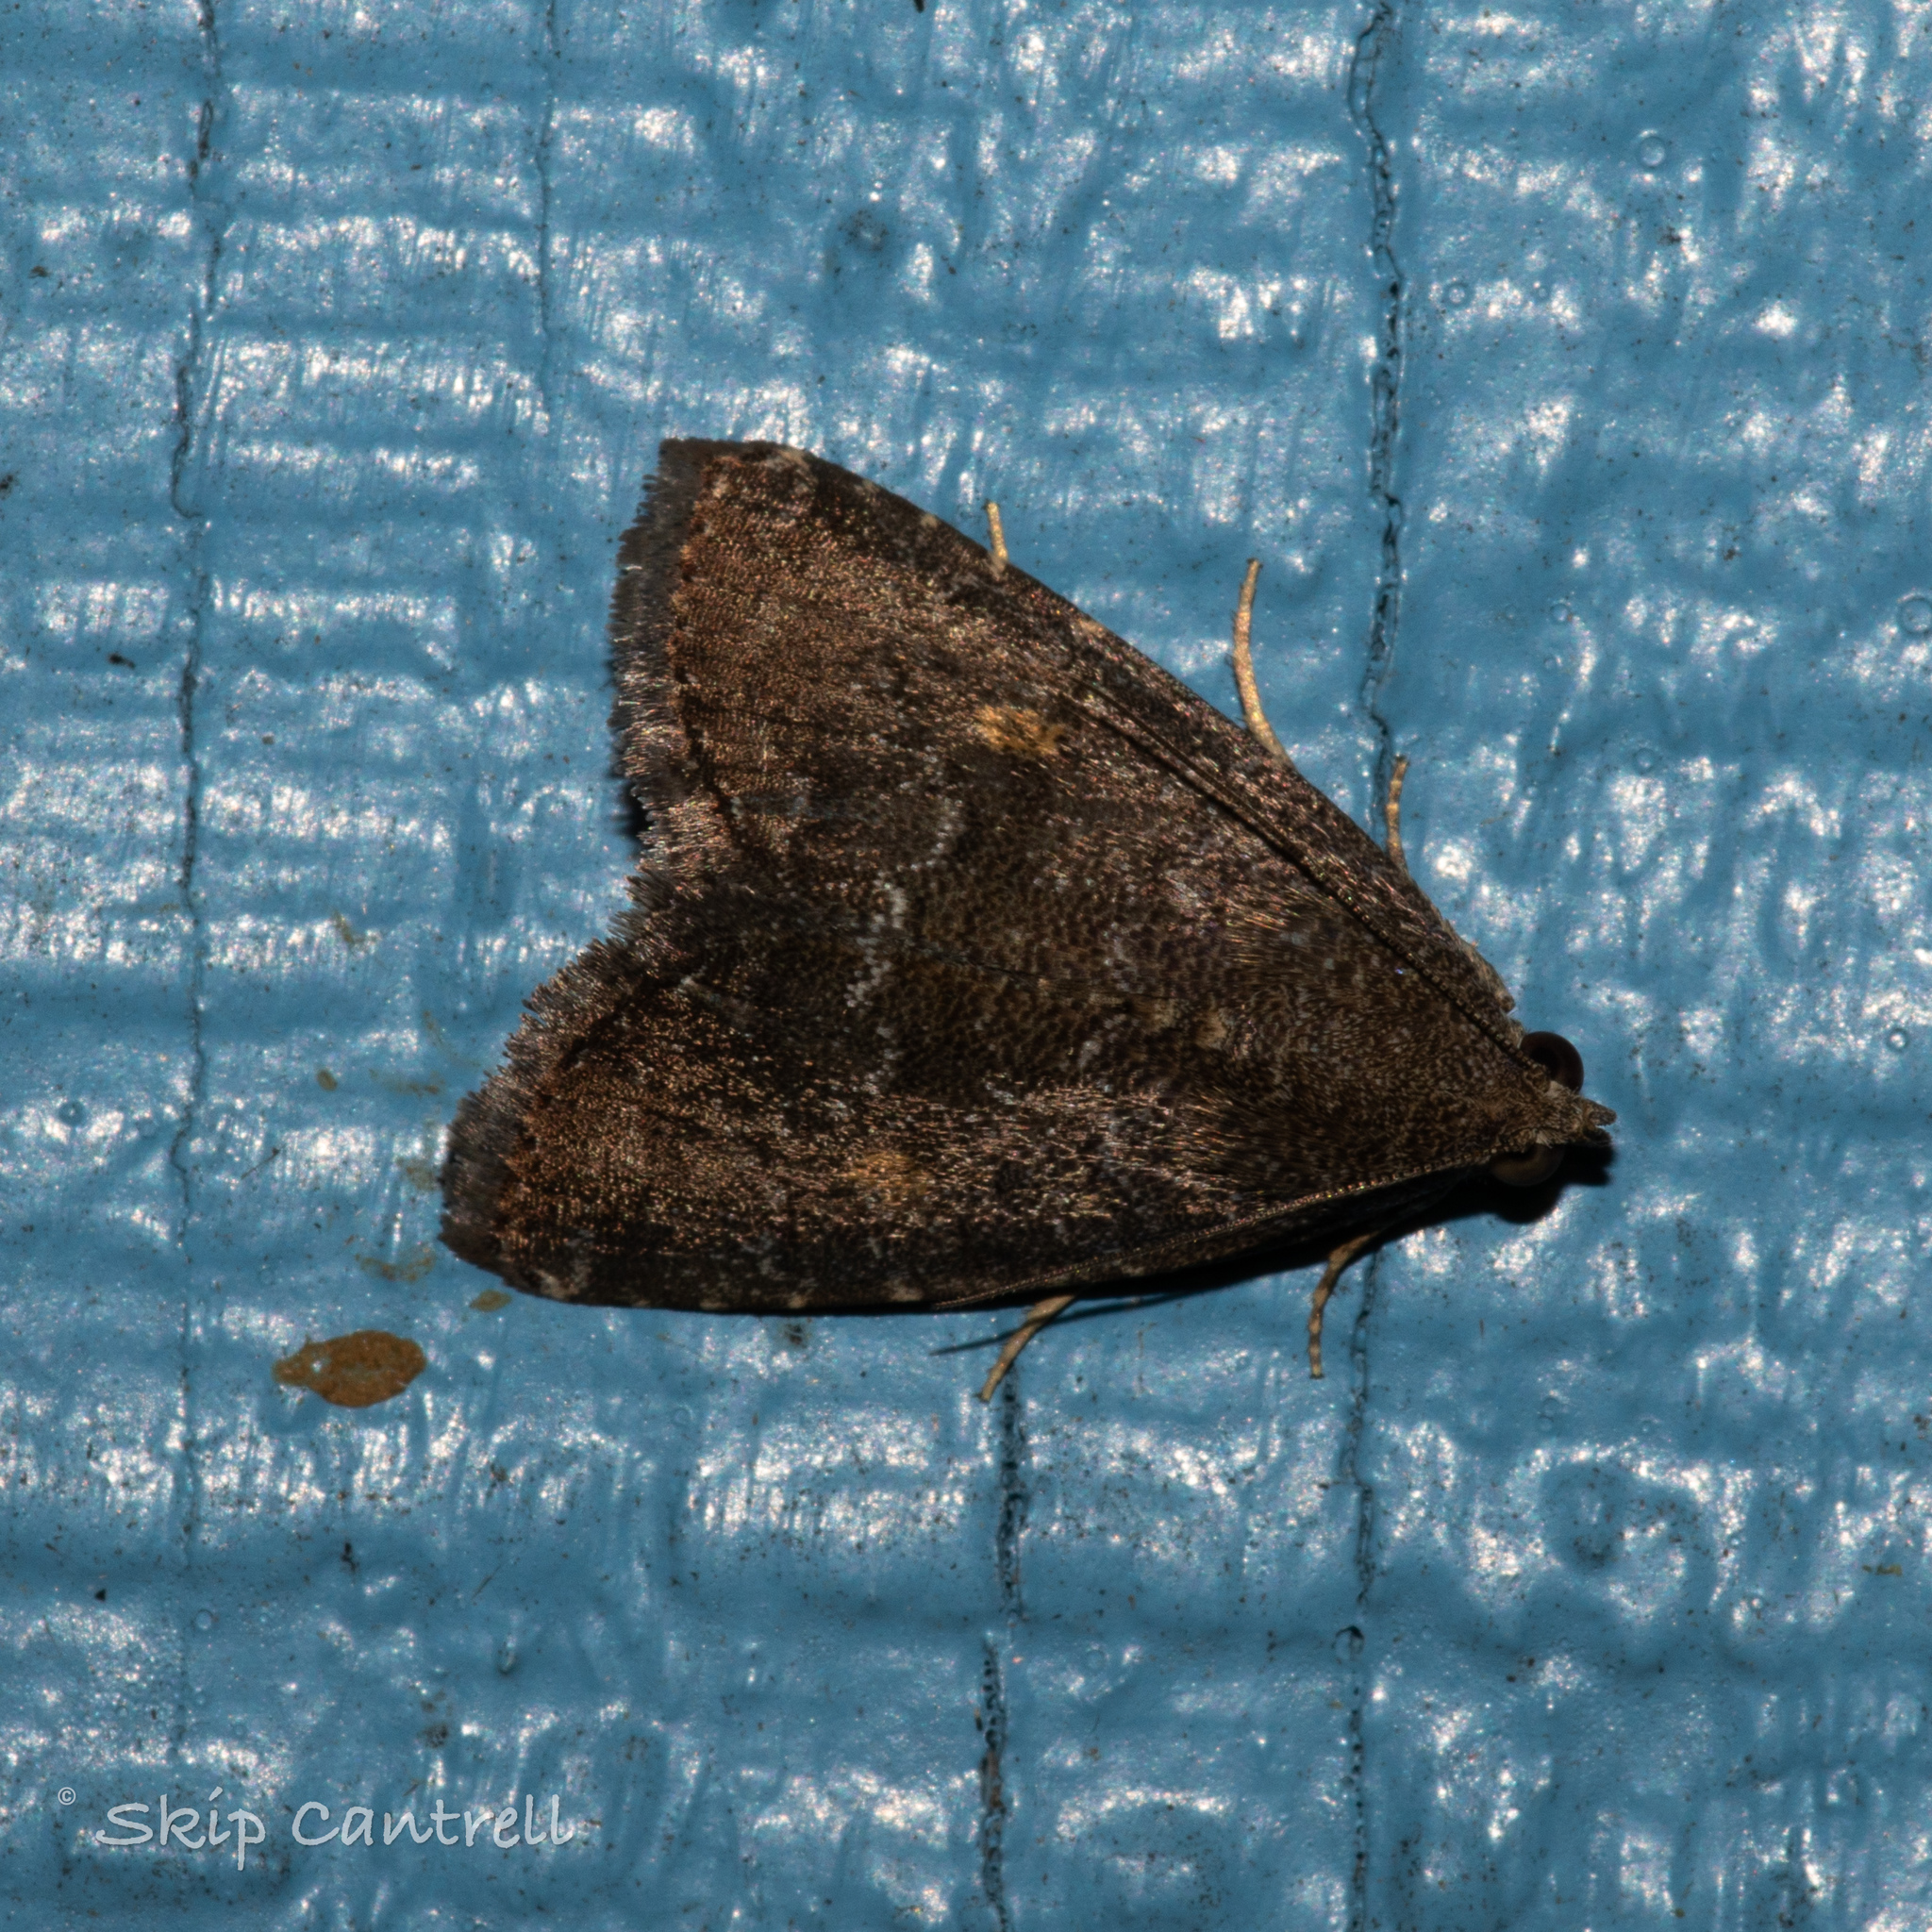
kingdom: Animalia
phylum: Arthropoda
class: Insecta
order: Lepidoptera
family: Noctuidae
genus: Amyna
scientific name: Amyna stricta
